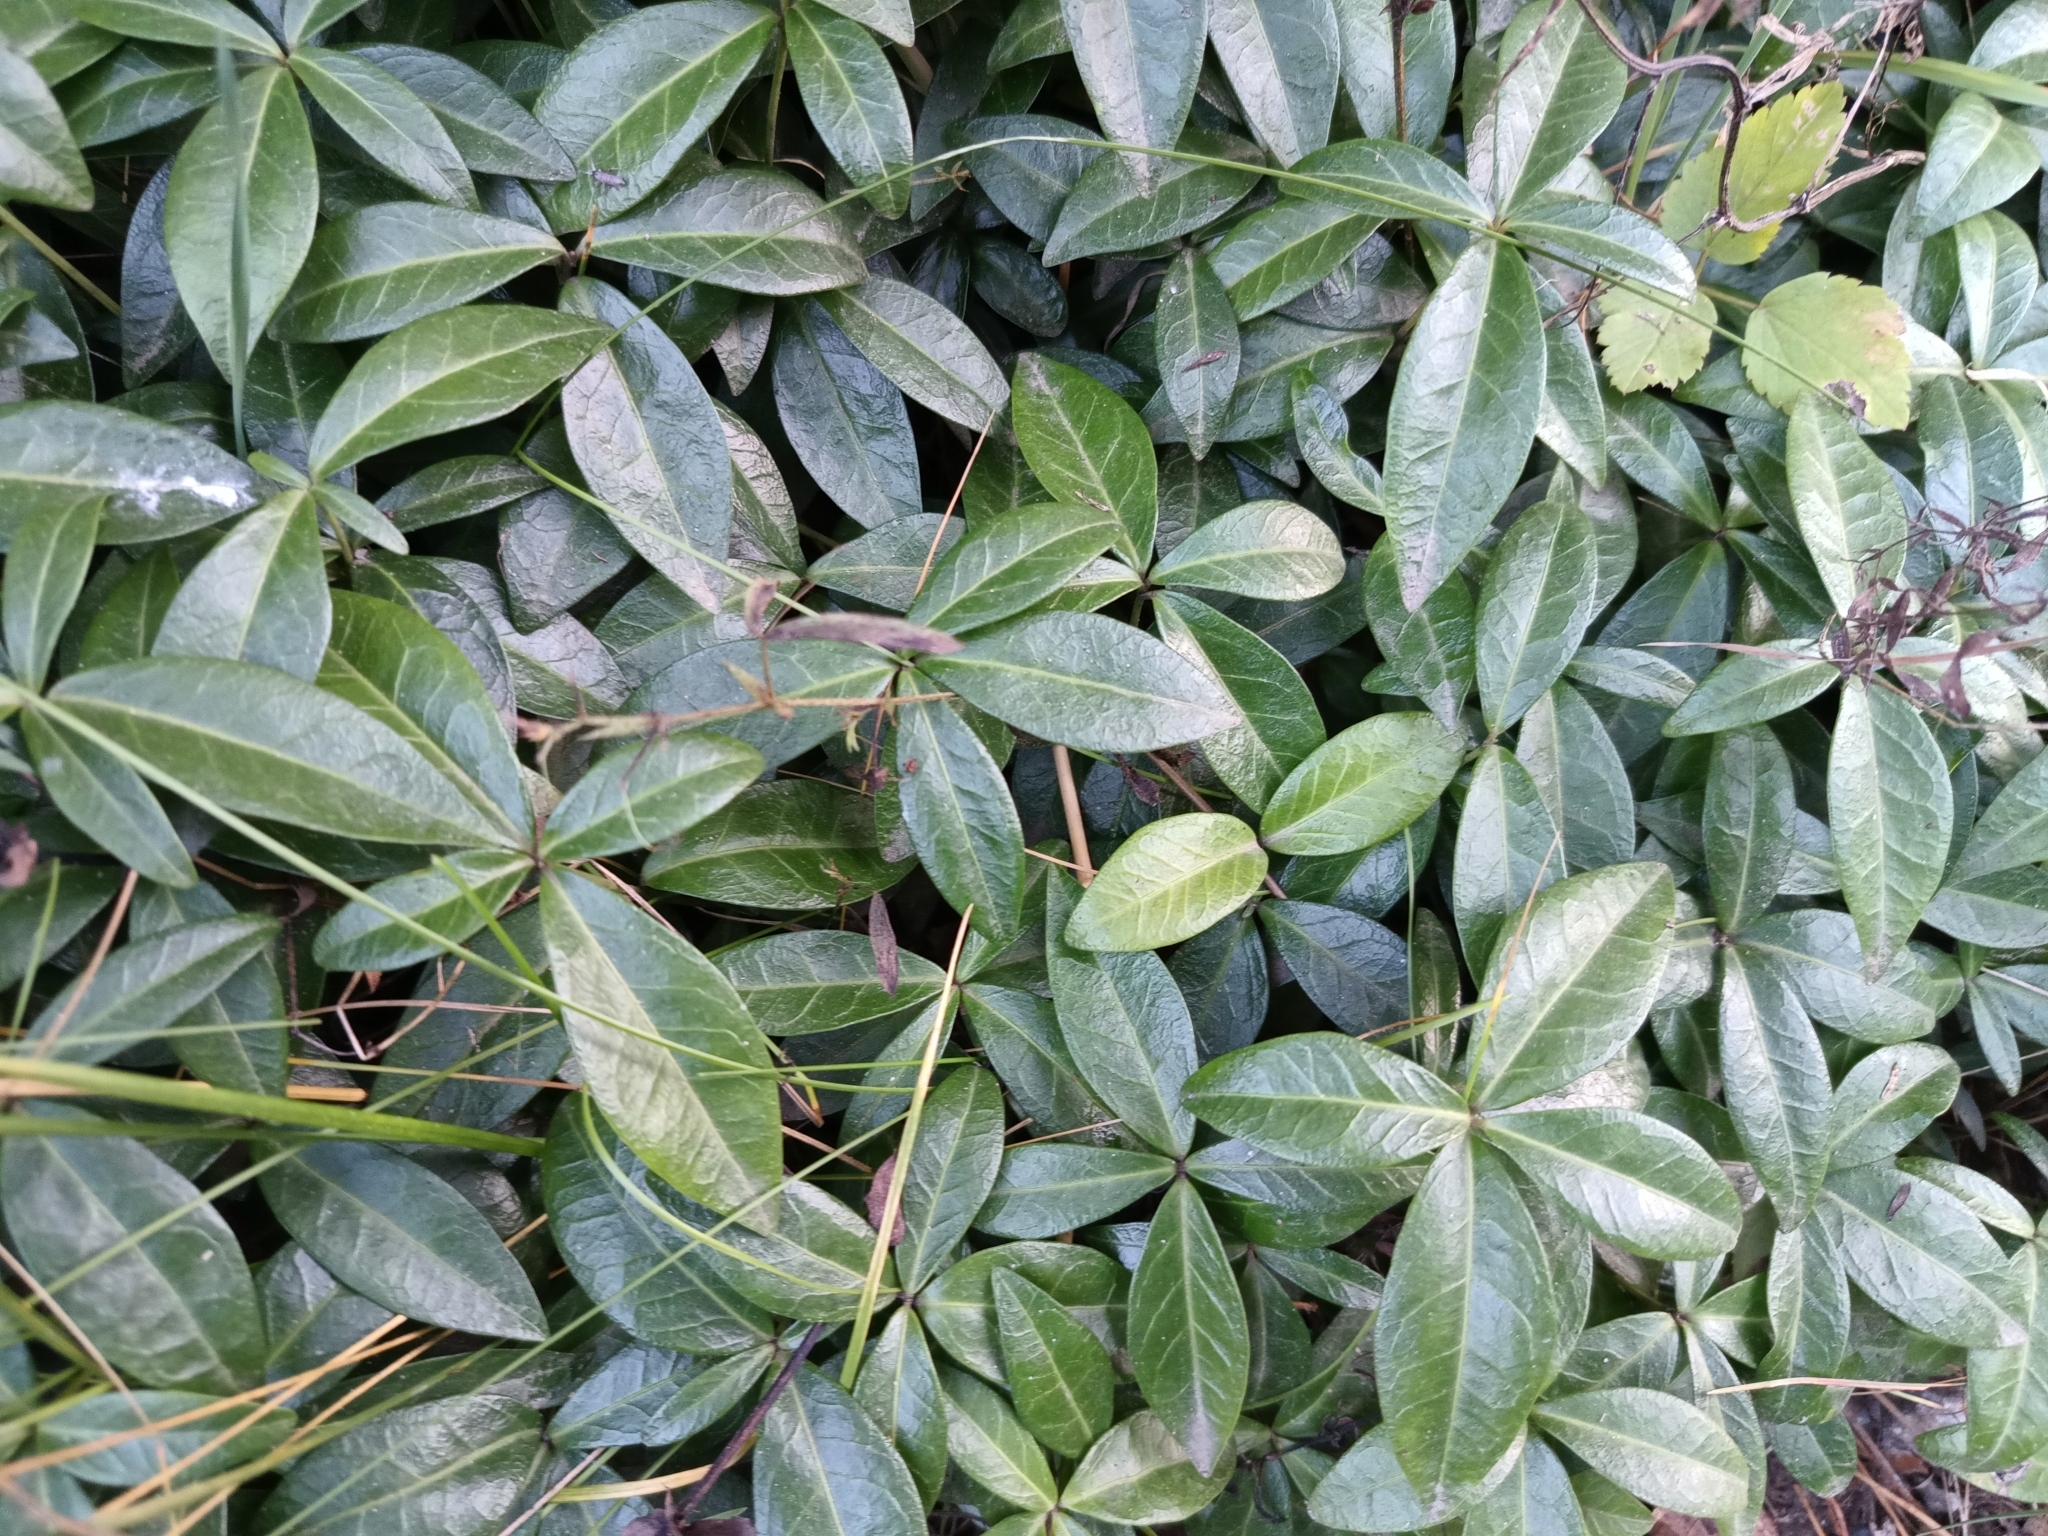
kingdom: Plantae
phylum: Tracheophyta
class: Magnoliopsida
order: Gentianales
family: Apocynaceae
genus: Vinca
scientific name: Vinca minor
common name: Lesser periwinkle
